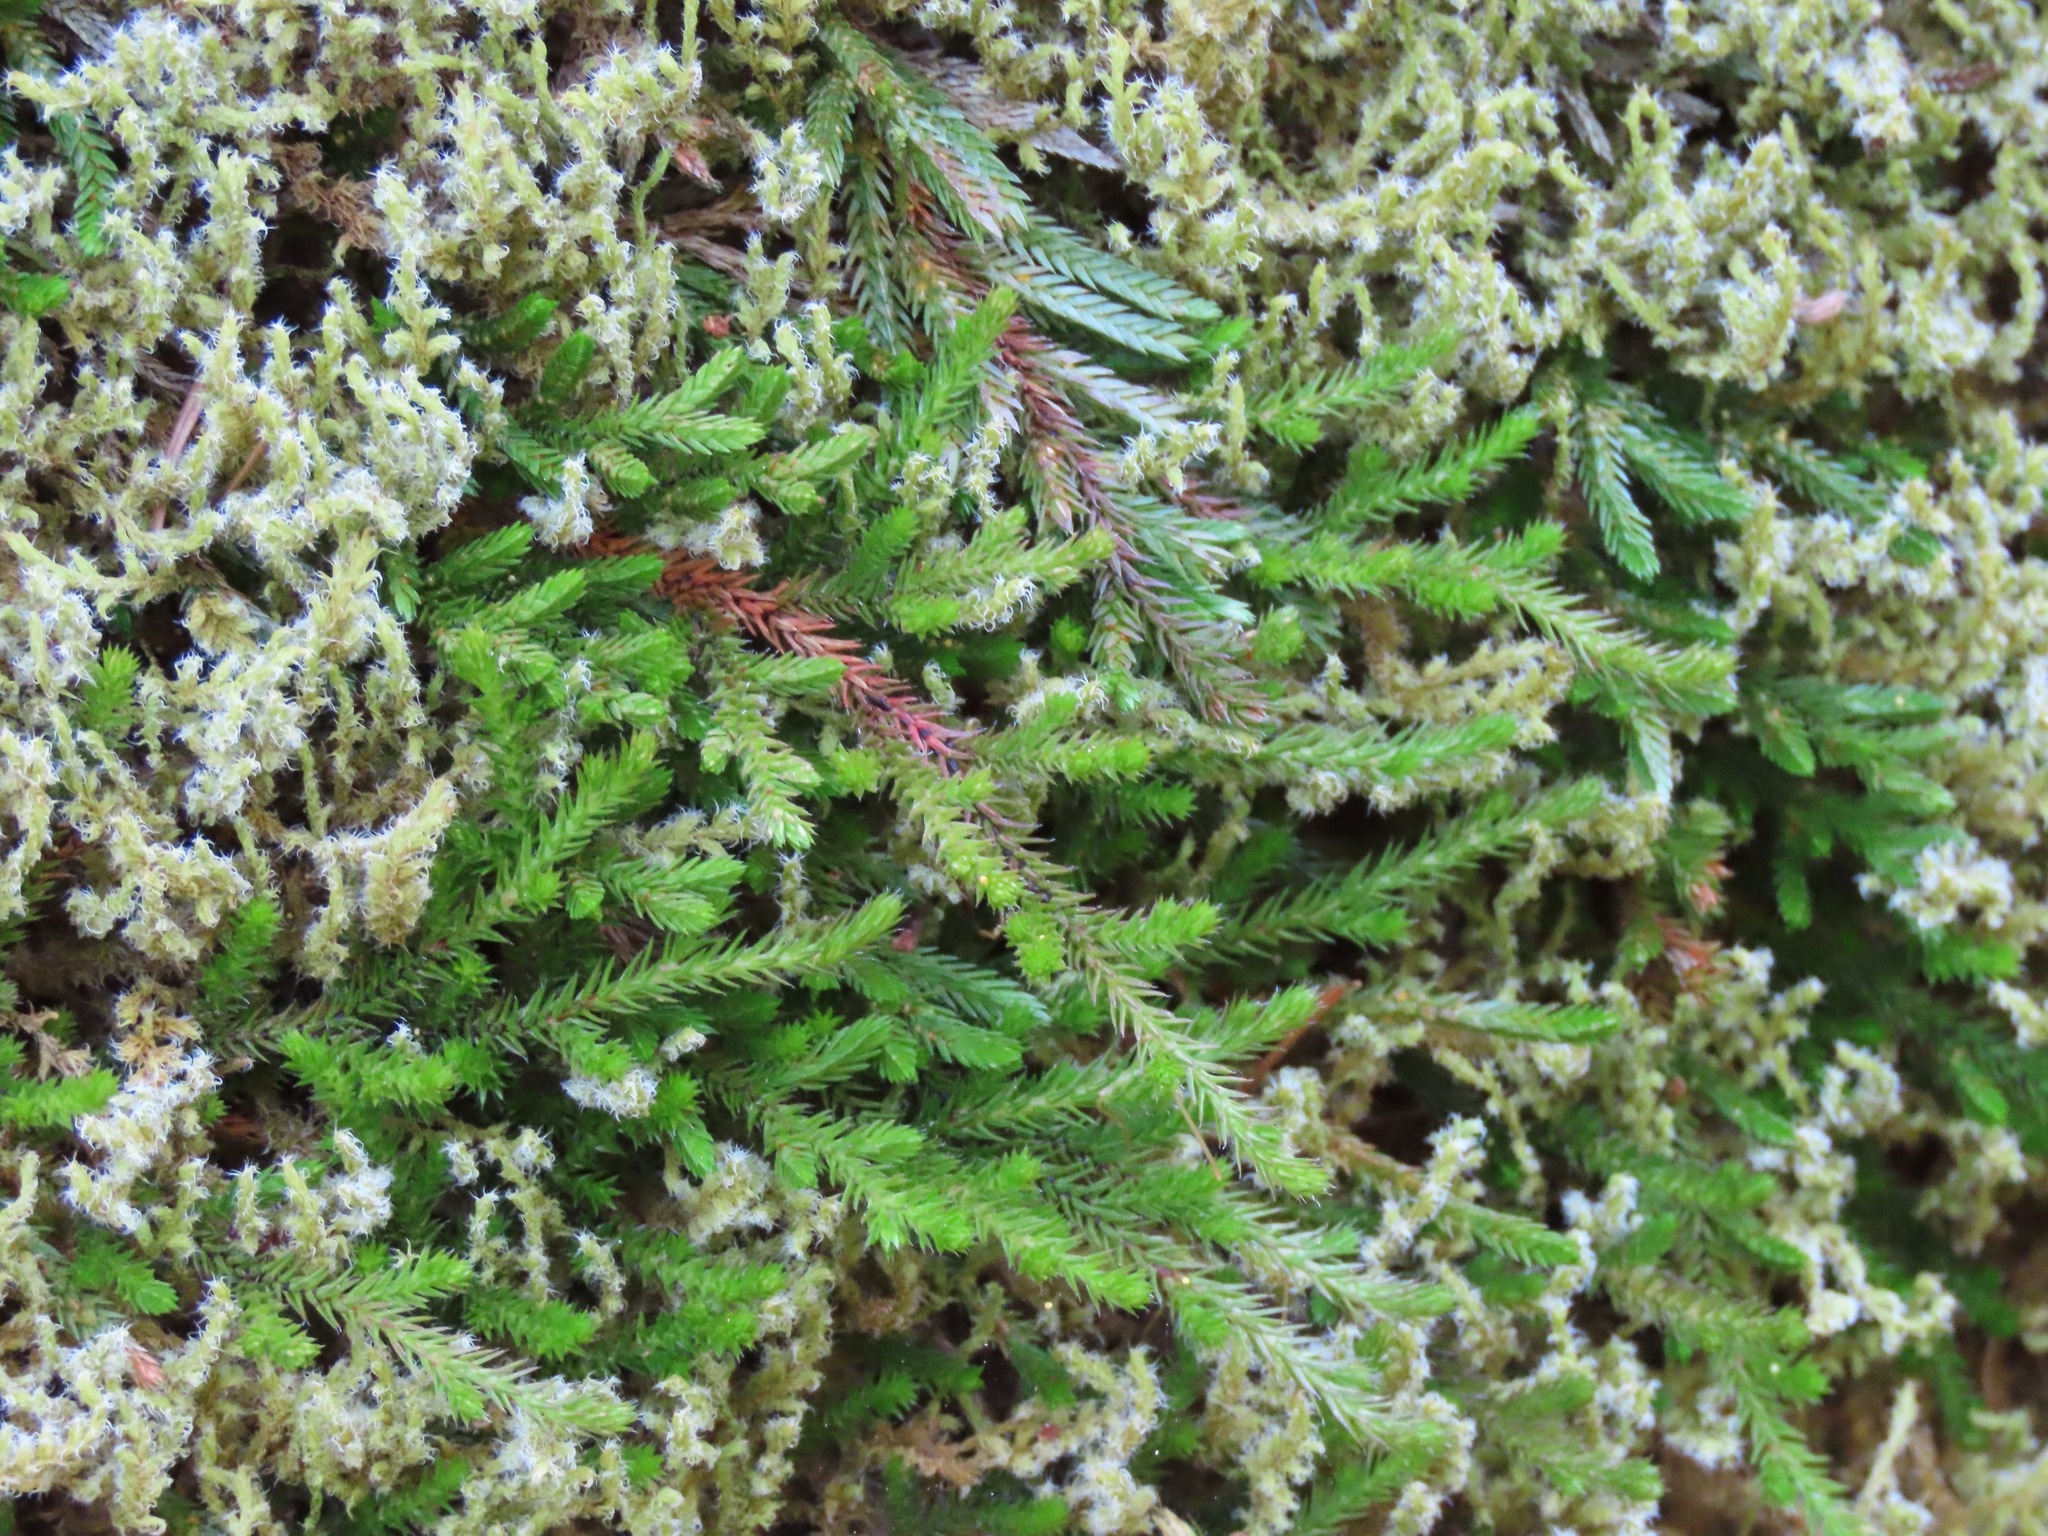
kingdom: Plantae
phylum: Tracheophyta
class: Lycopodiopsida
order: Selaginellales
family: Selaginellaceae
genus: Selaginella
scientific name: Selaginella wallacei
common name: Wallace's selaginella
